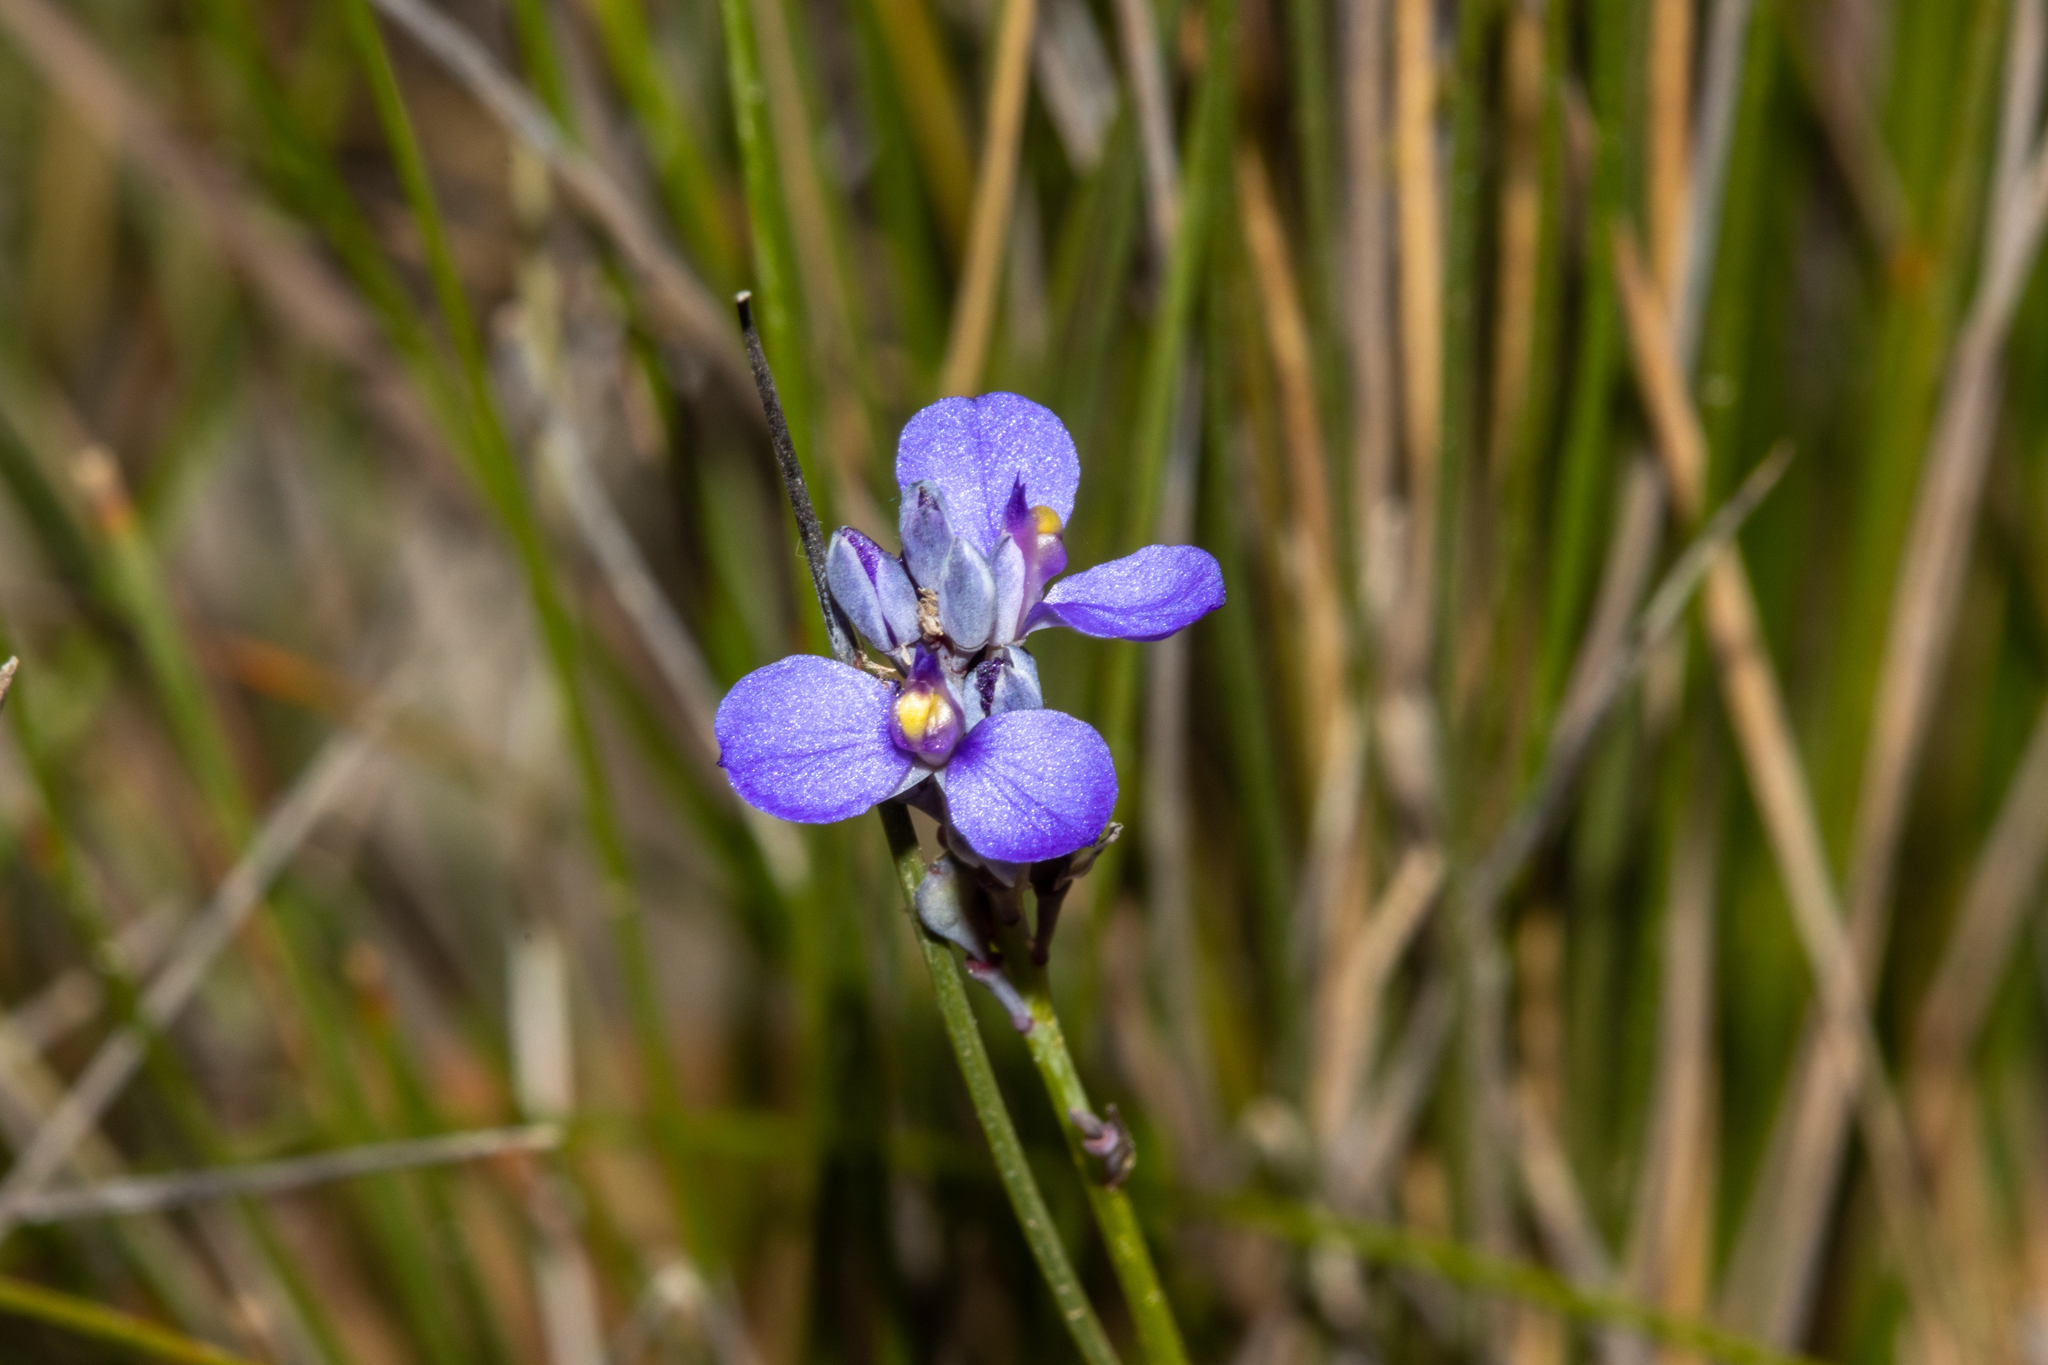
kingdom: Plantae
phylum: Tracheophyta
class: Magnoliopsida
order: Fabales
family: Polygalaceae
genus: Comesperma
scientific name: Comesperma calymega
